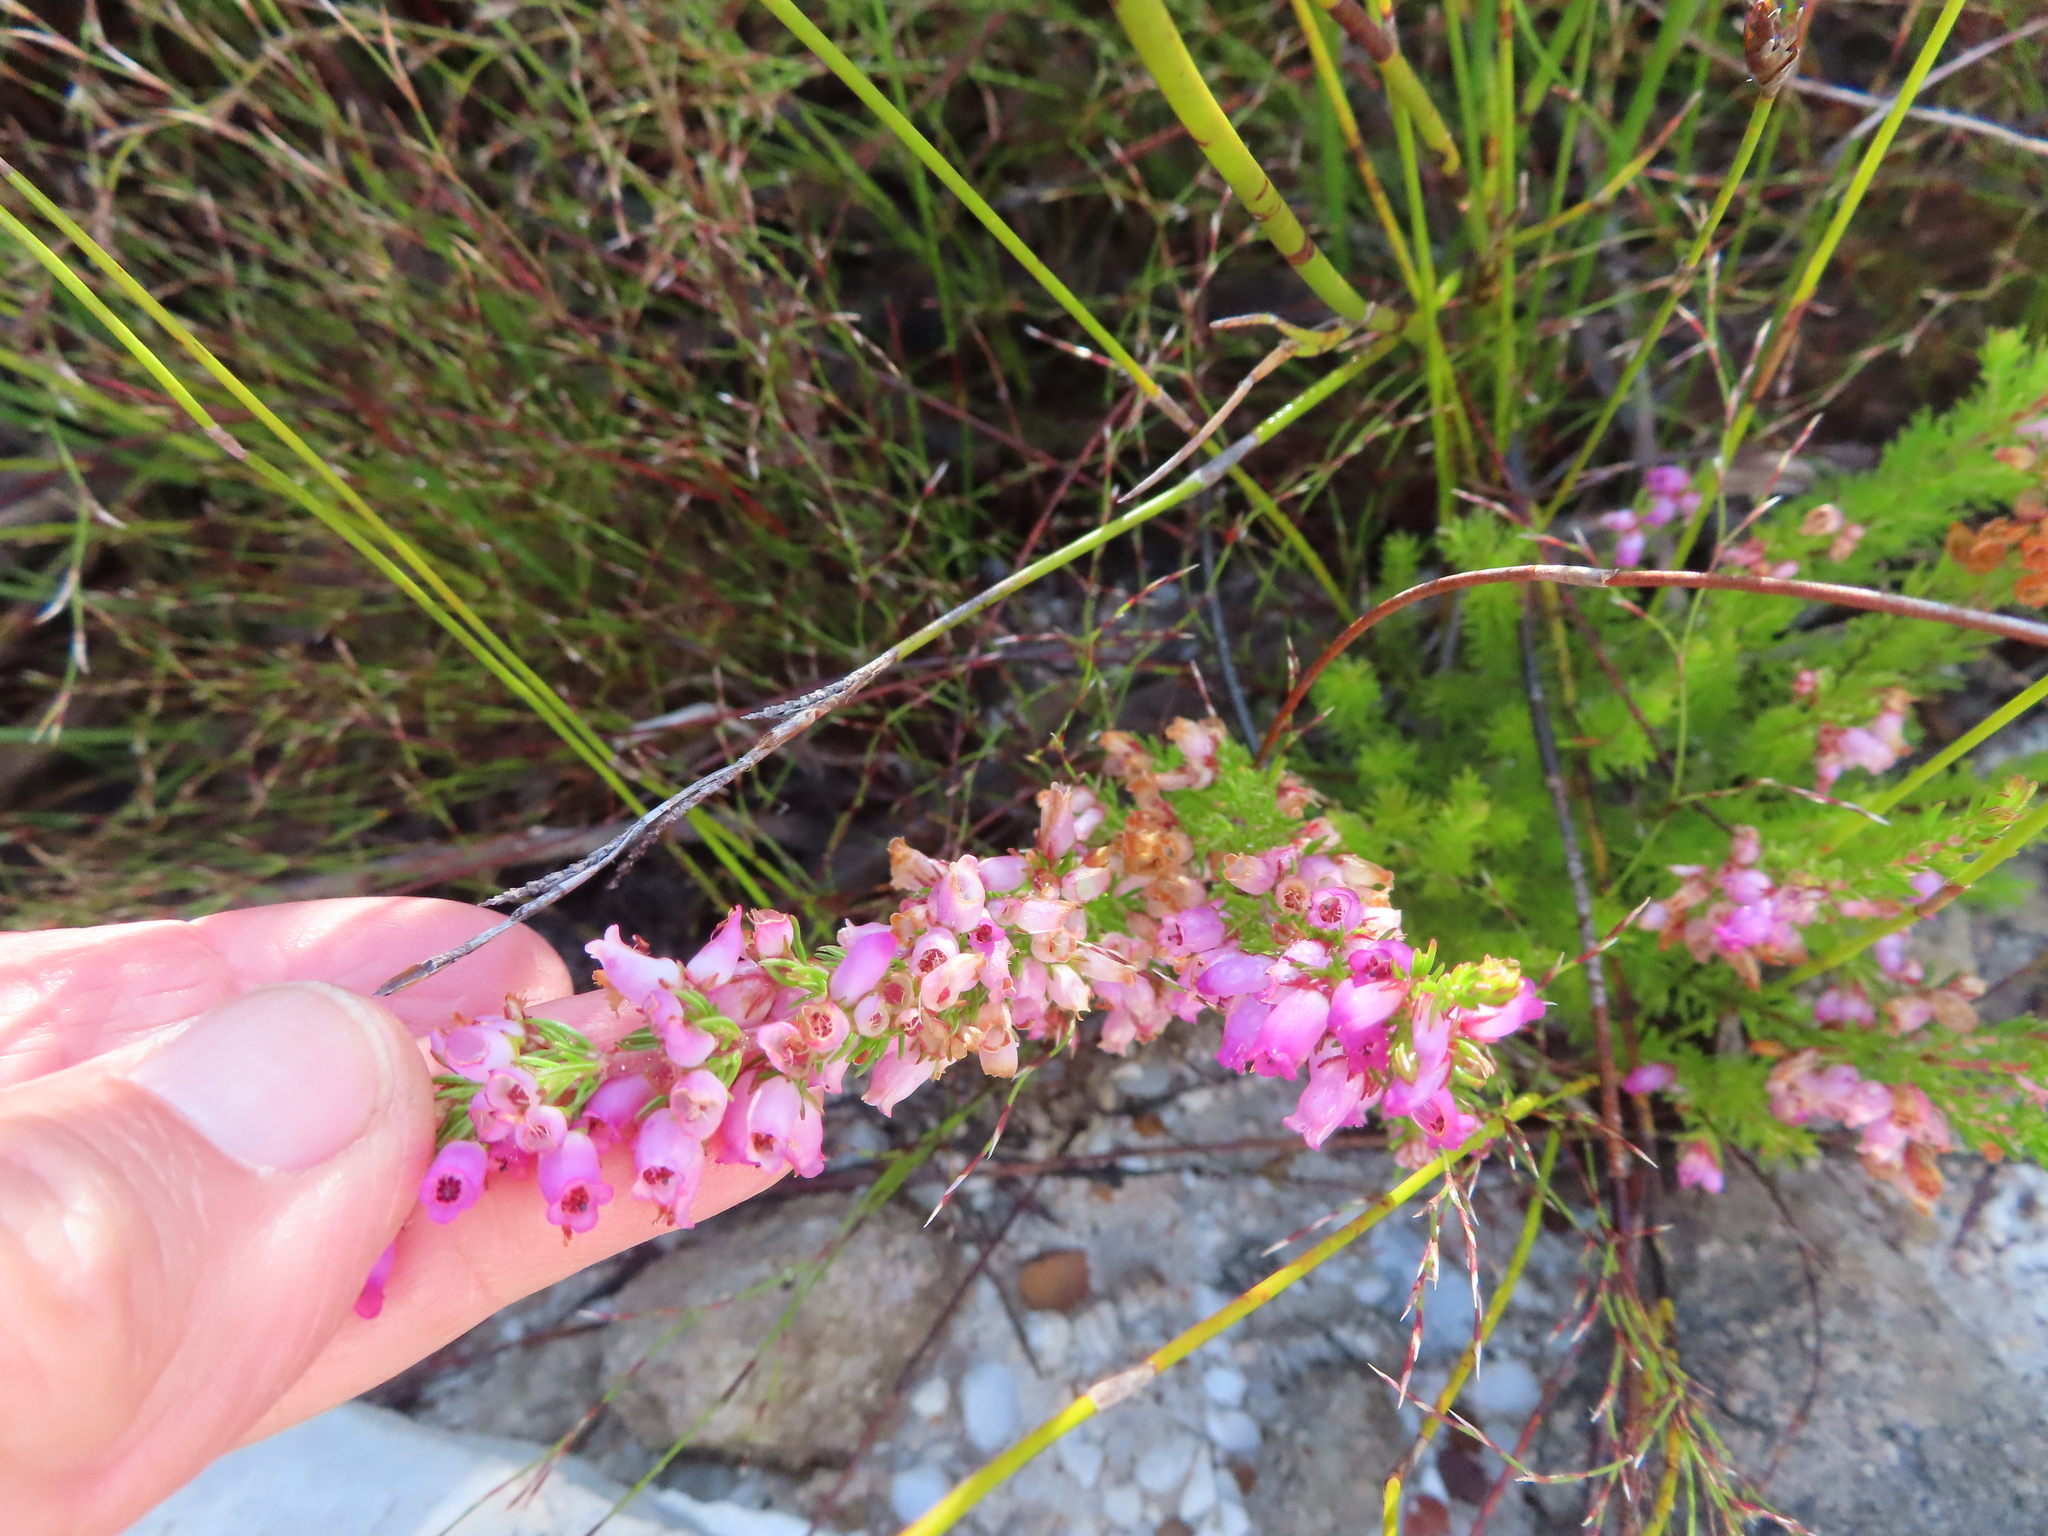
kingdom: Plantae
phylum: Tracheophyta
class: Magnoliopsida
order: Ericales
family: Ericaceae
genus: Erica
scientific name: Erica tenella
